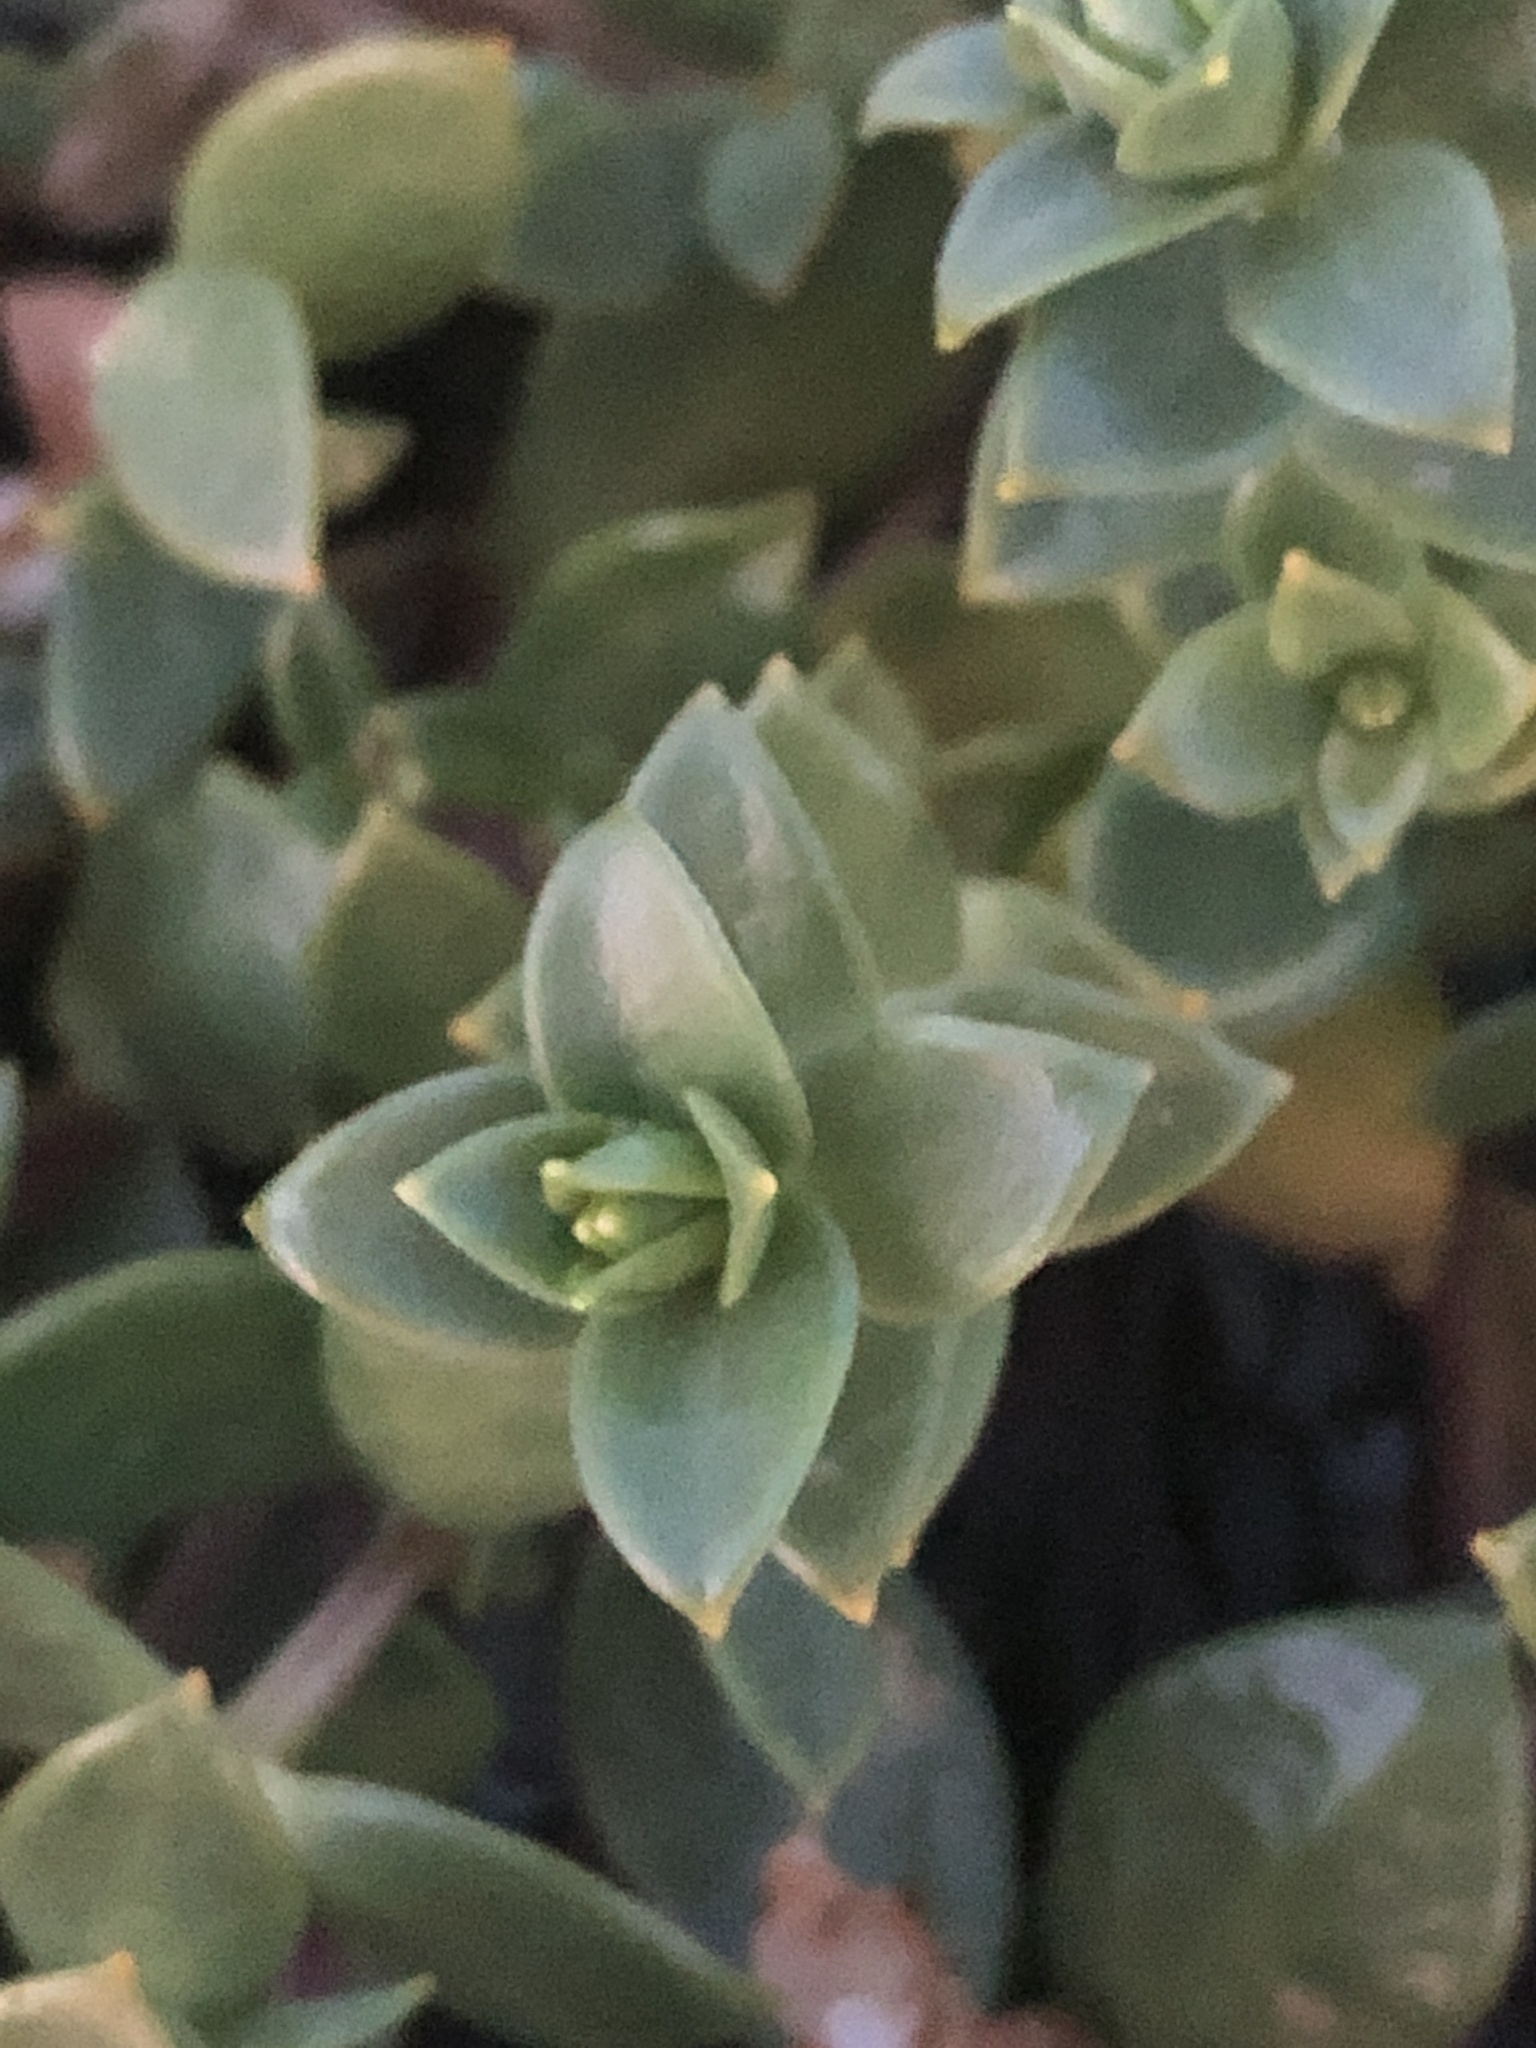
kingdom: Plantae
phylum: Tracheophyta
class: Magnoliopsida
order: Caryophyllales
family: Caryophyllaceae
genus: Honckenya
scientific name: Honckenya peploides
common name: Sea sandwort
